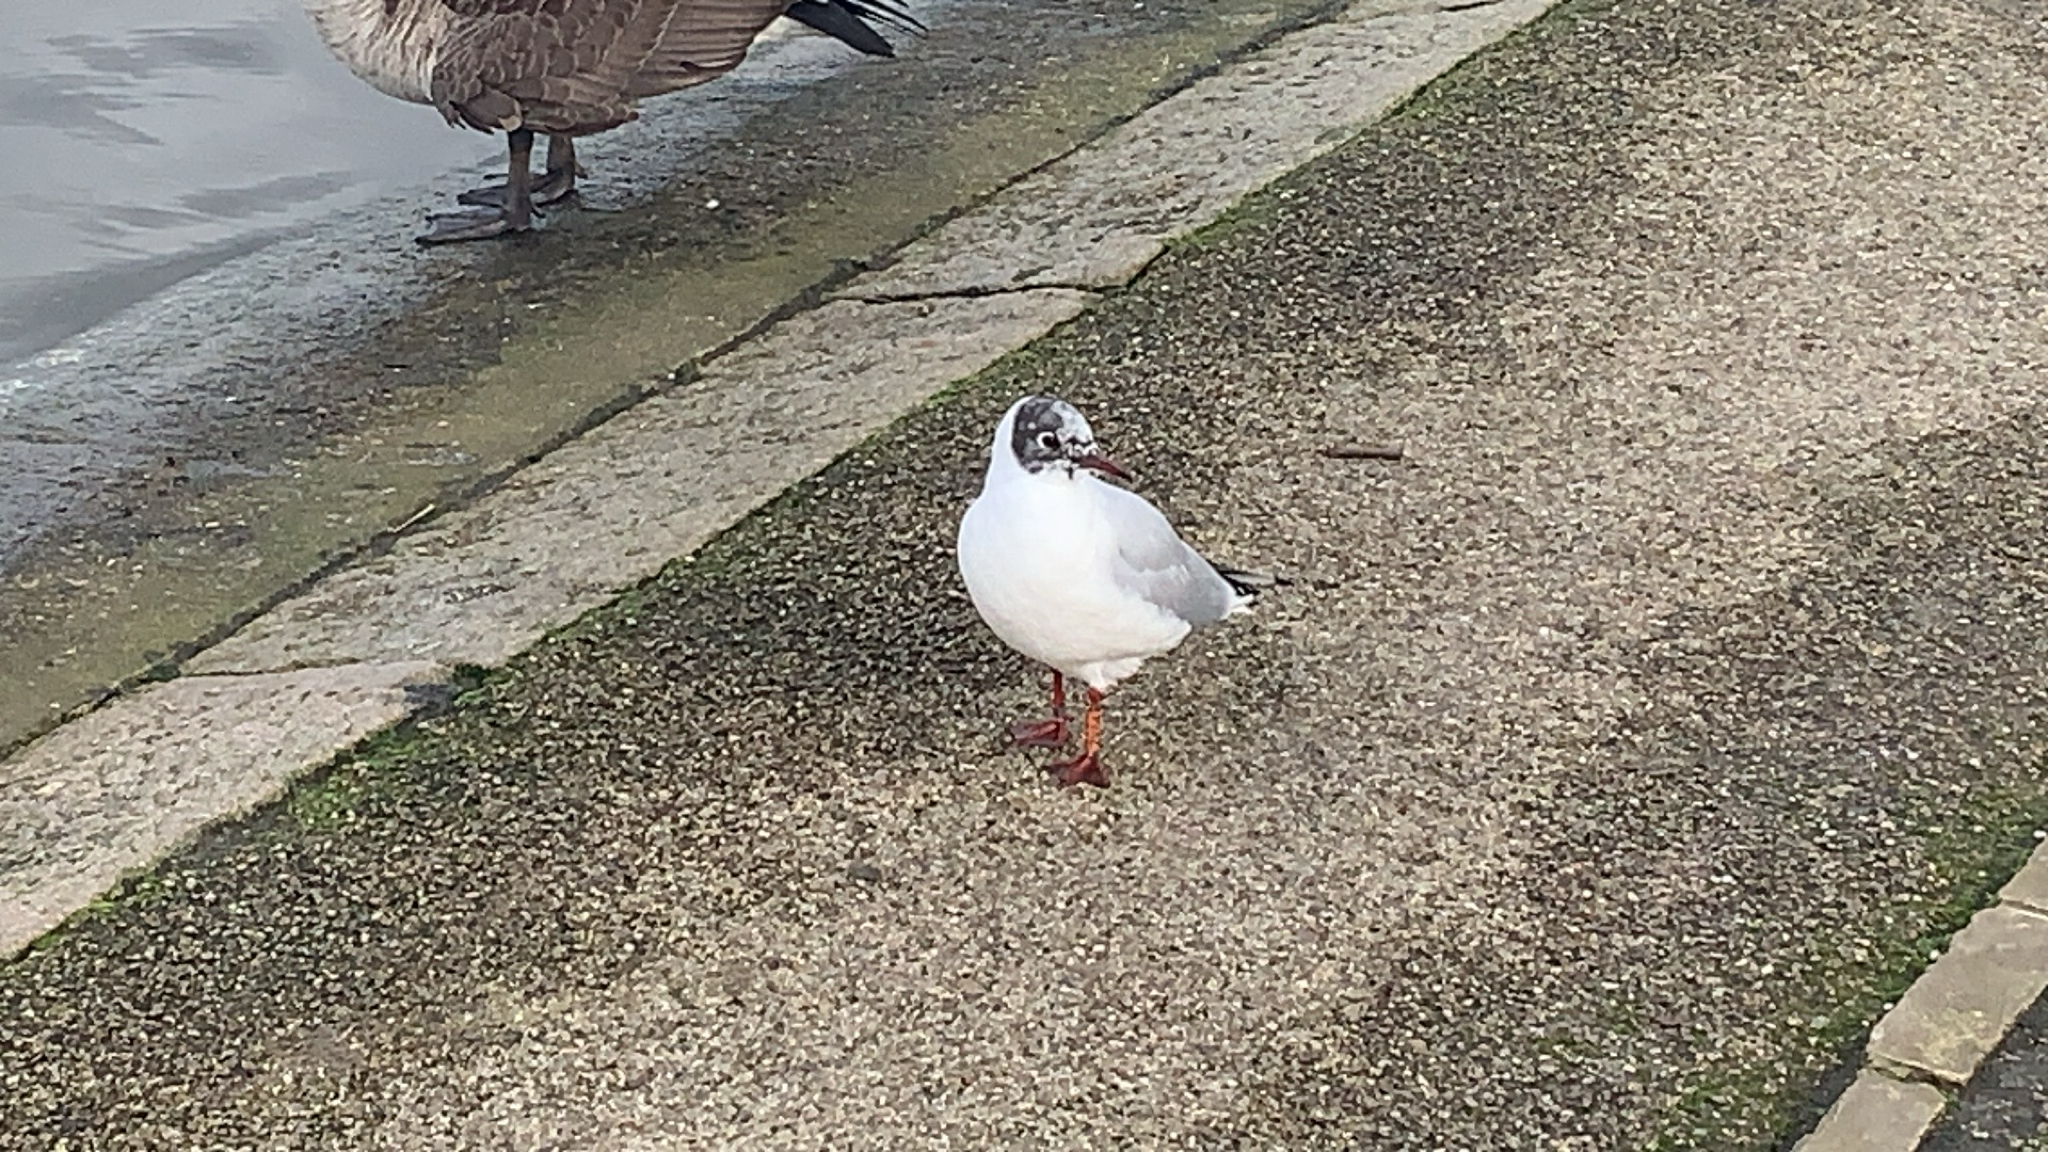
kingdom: Animalia
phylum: Chordata
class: Aves
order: Charadriiformes
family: Laridae
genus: Chroicocephalus
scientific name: Chroicocephalus ridibundus
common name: Black-headed gull
